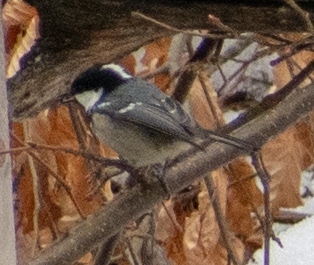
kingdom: Animalia
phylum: Chordata
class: Aves
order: Passeriformes
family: Paridae
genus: Periparus
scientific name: Periparus ater
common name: Coal tit
